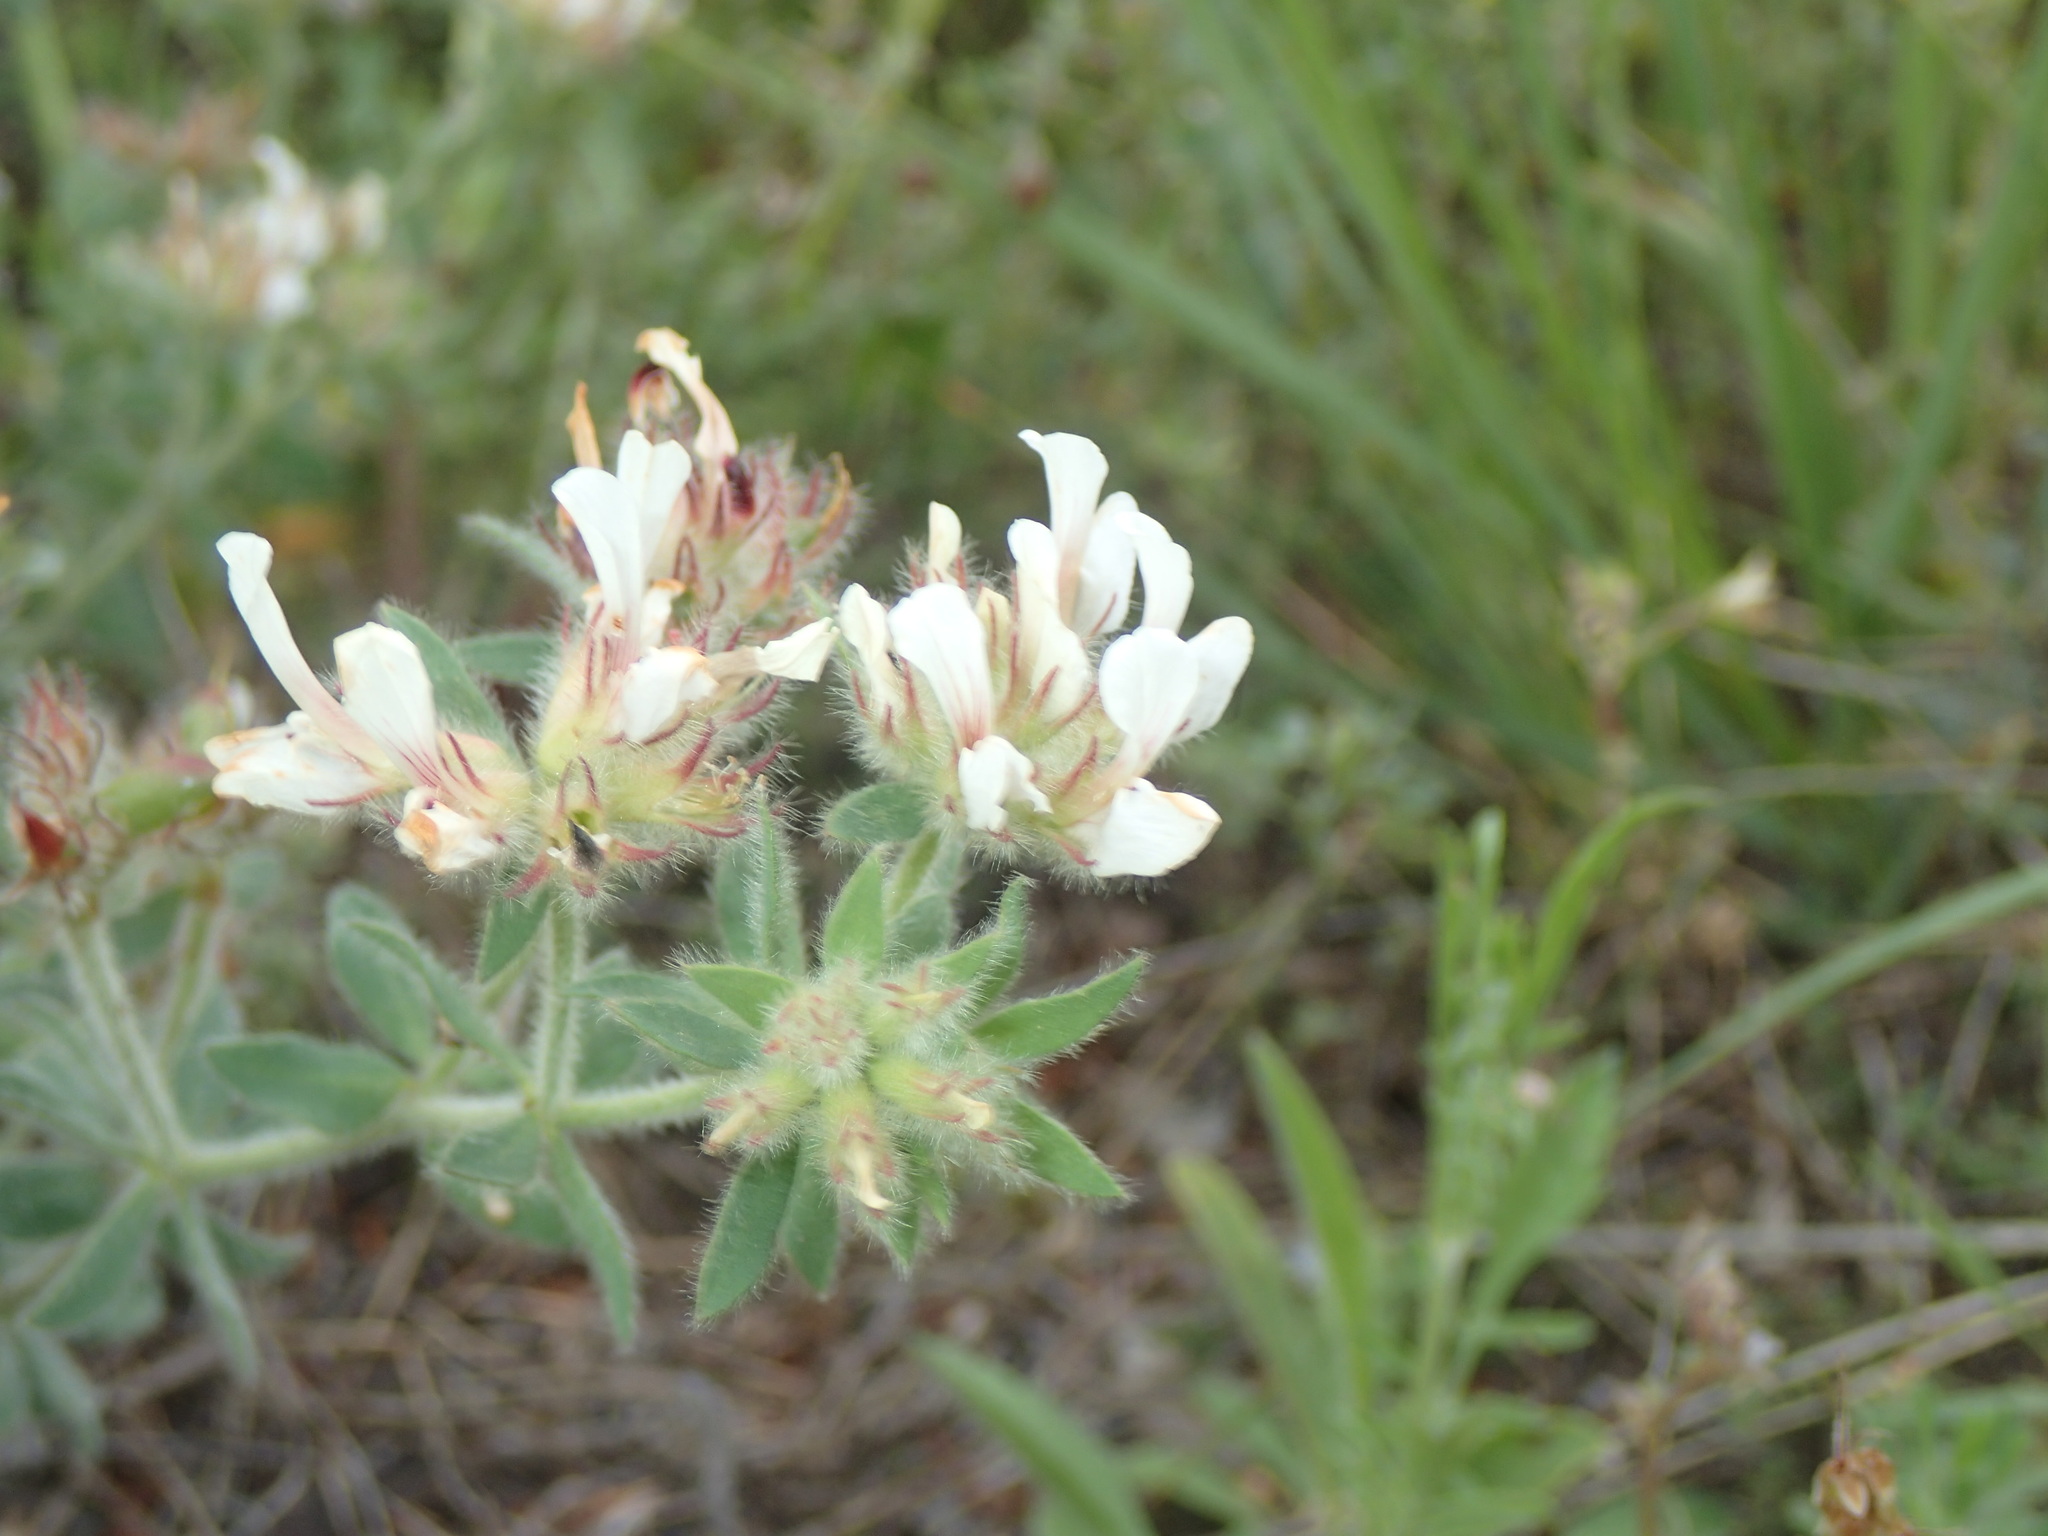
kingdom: Plantae
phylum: Tracheophyta
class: Magnoliopsida
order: Fabales
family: Fabaceae
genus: Lotus
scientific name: Lotus hirsutus
